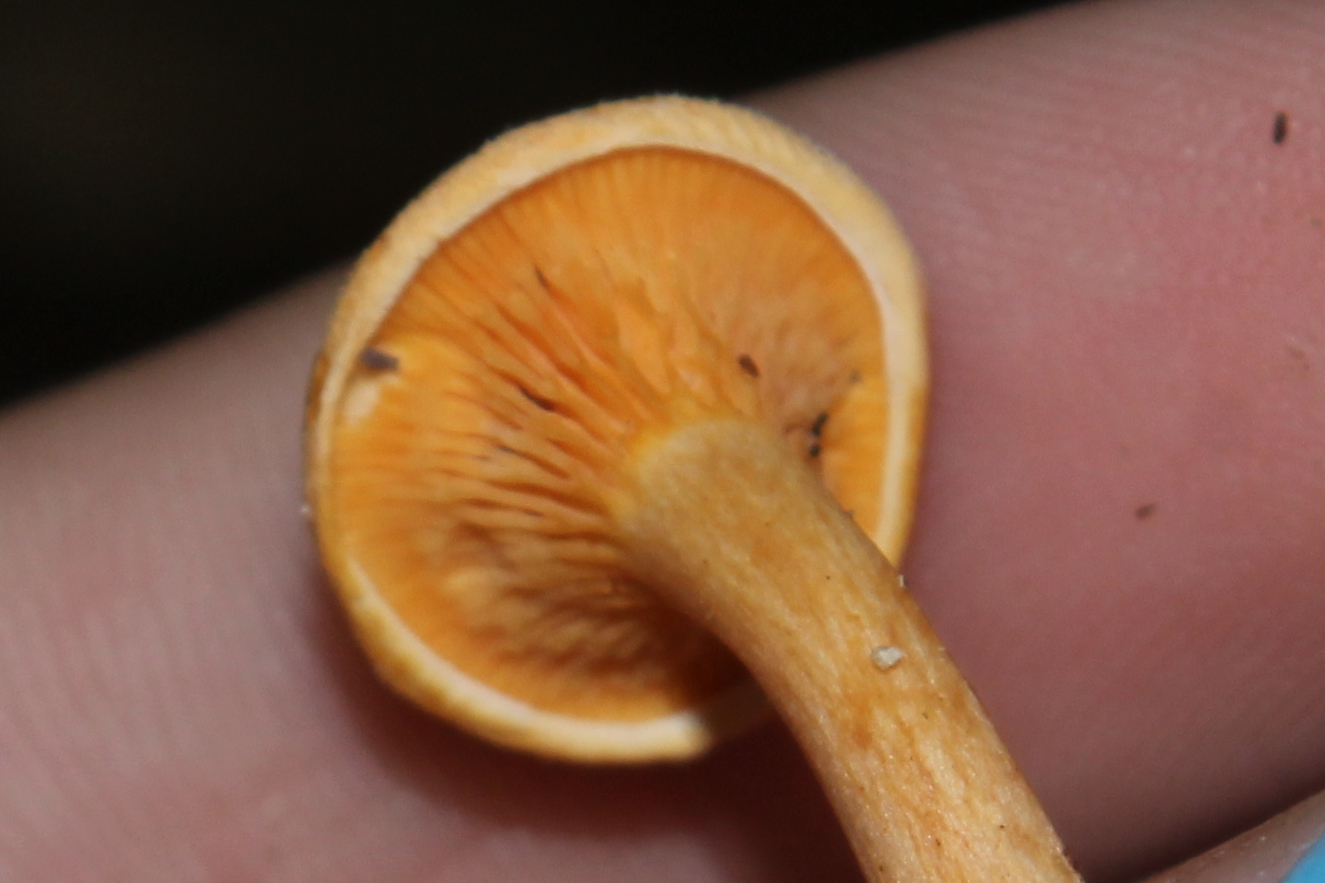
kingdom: Fungi
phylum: Basidiomycota
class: Agaricomycetes
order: Boletales
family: Hygrophoropsidaceae
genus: Hygrophoropsis
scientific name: Hygrophoropsis aurantiaca
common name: False chanterelle
